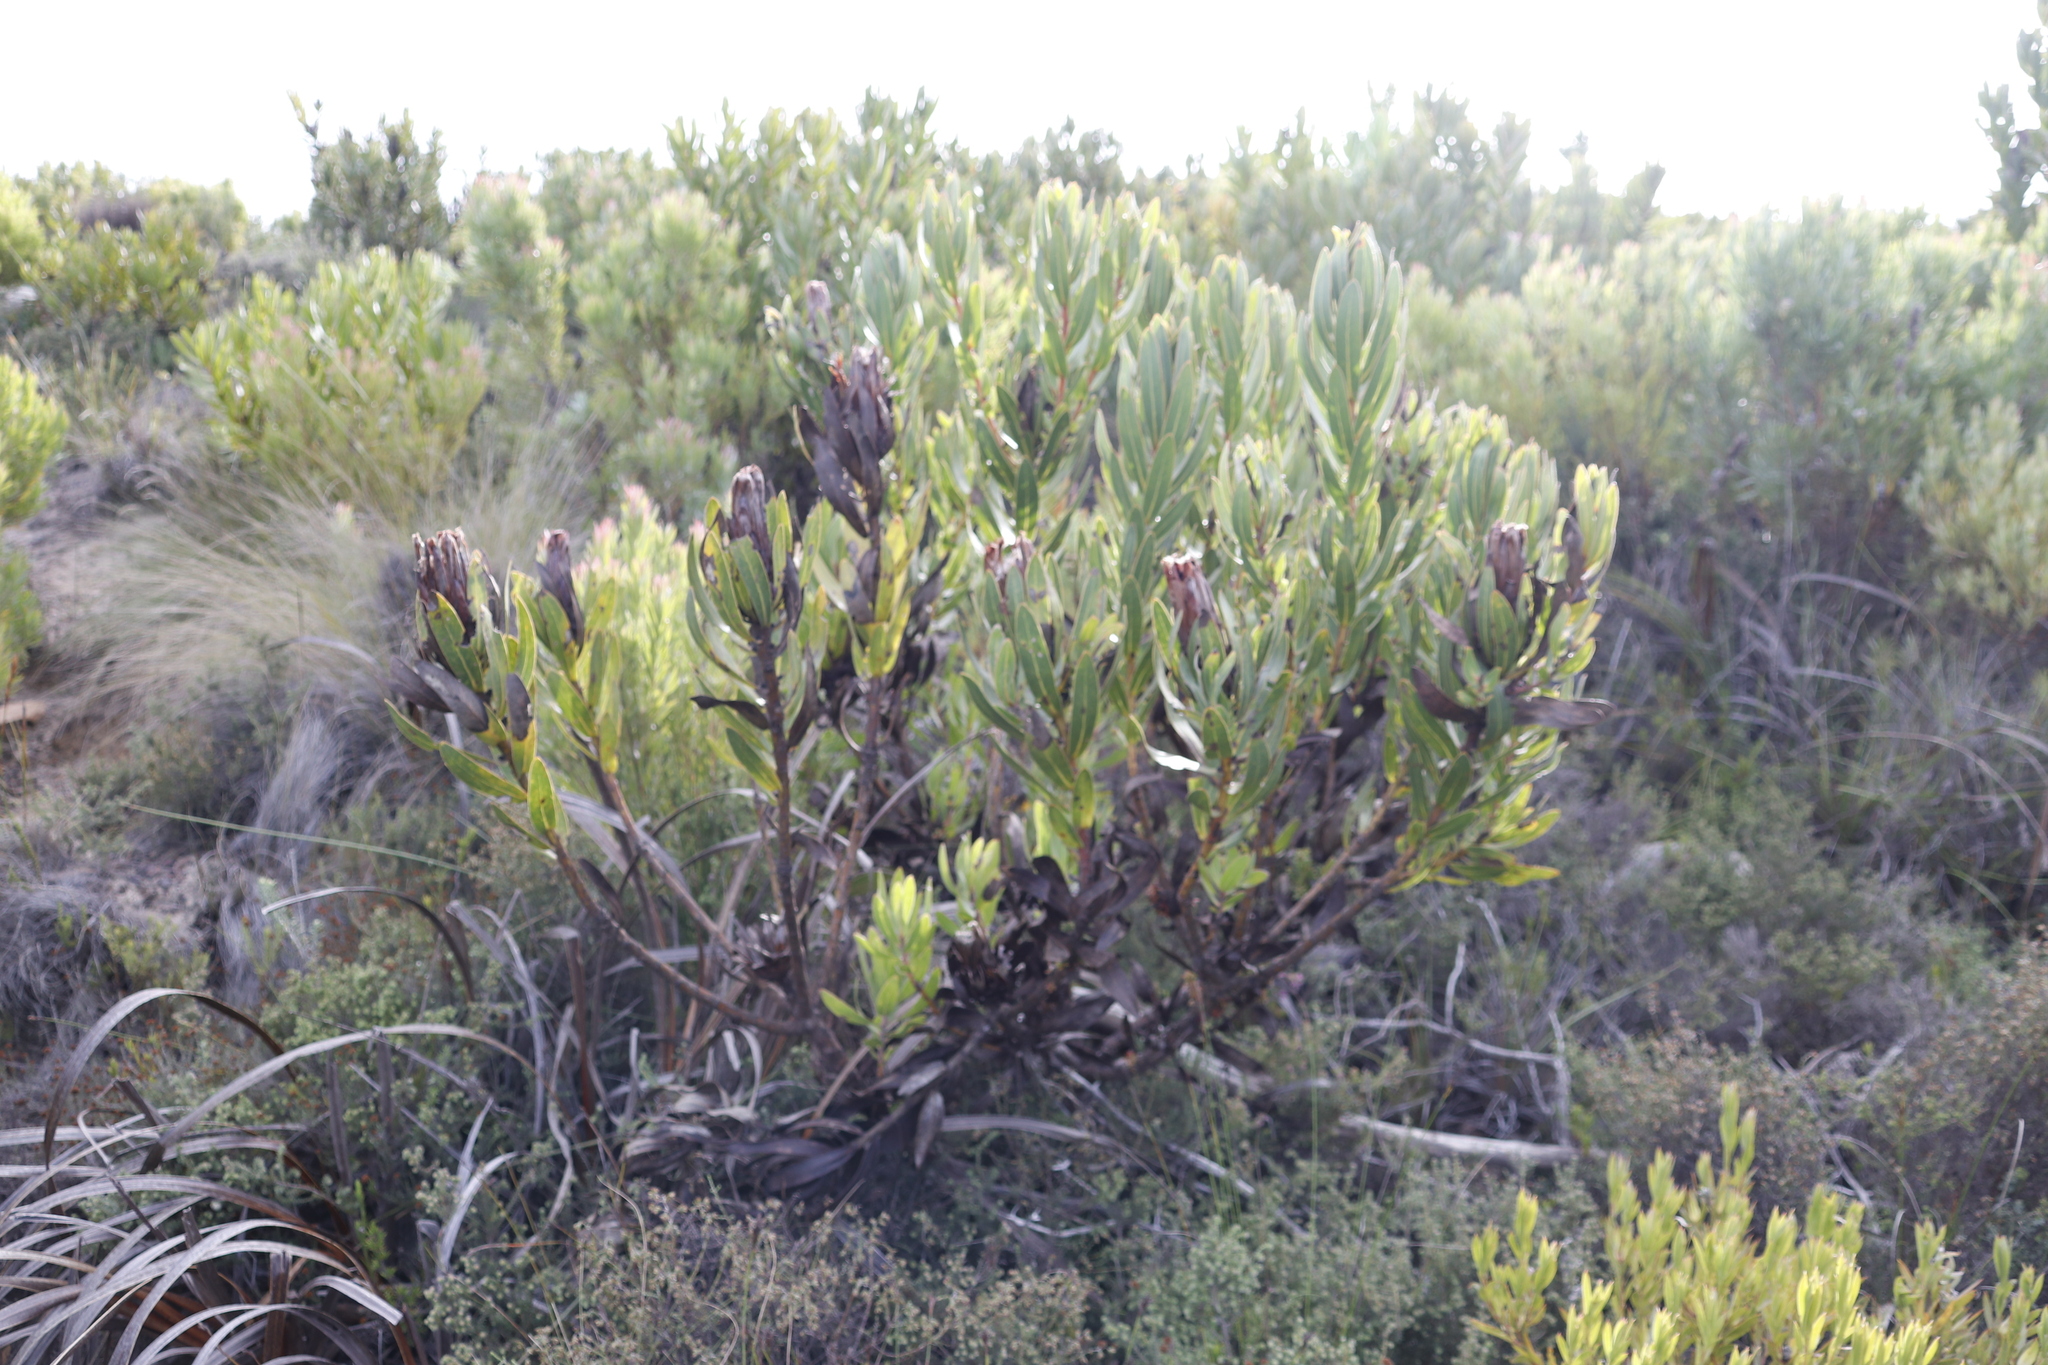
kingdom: Plantae
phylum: Tracheophyta
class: Magnoliopsida
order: Proteales
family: Proteaceae
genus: Protea
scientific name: Protea lepidocarpodendron
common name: Black-bearded protea
